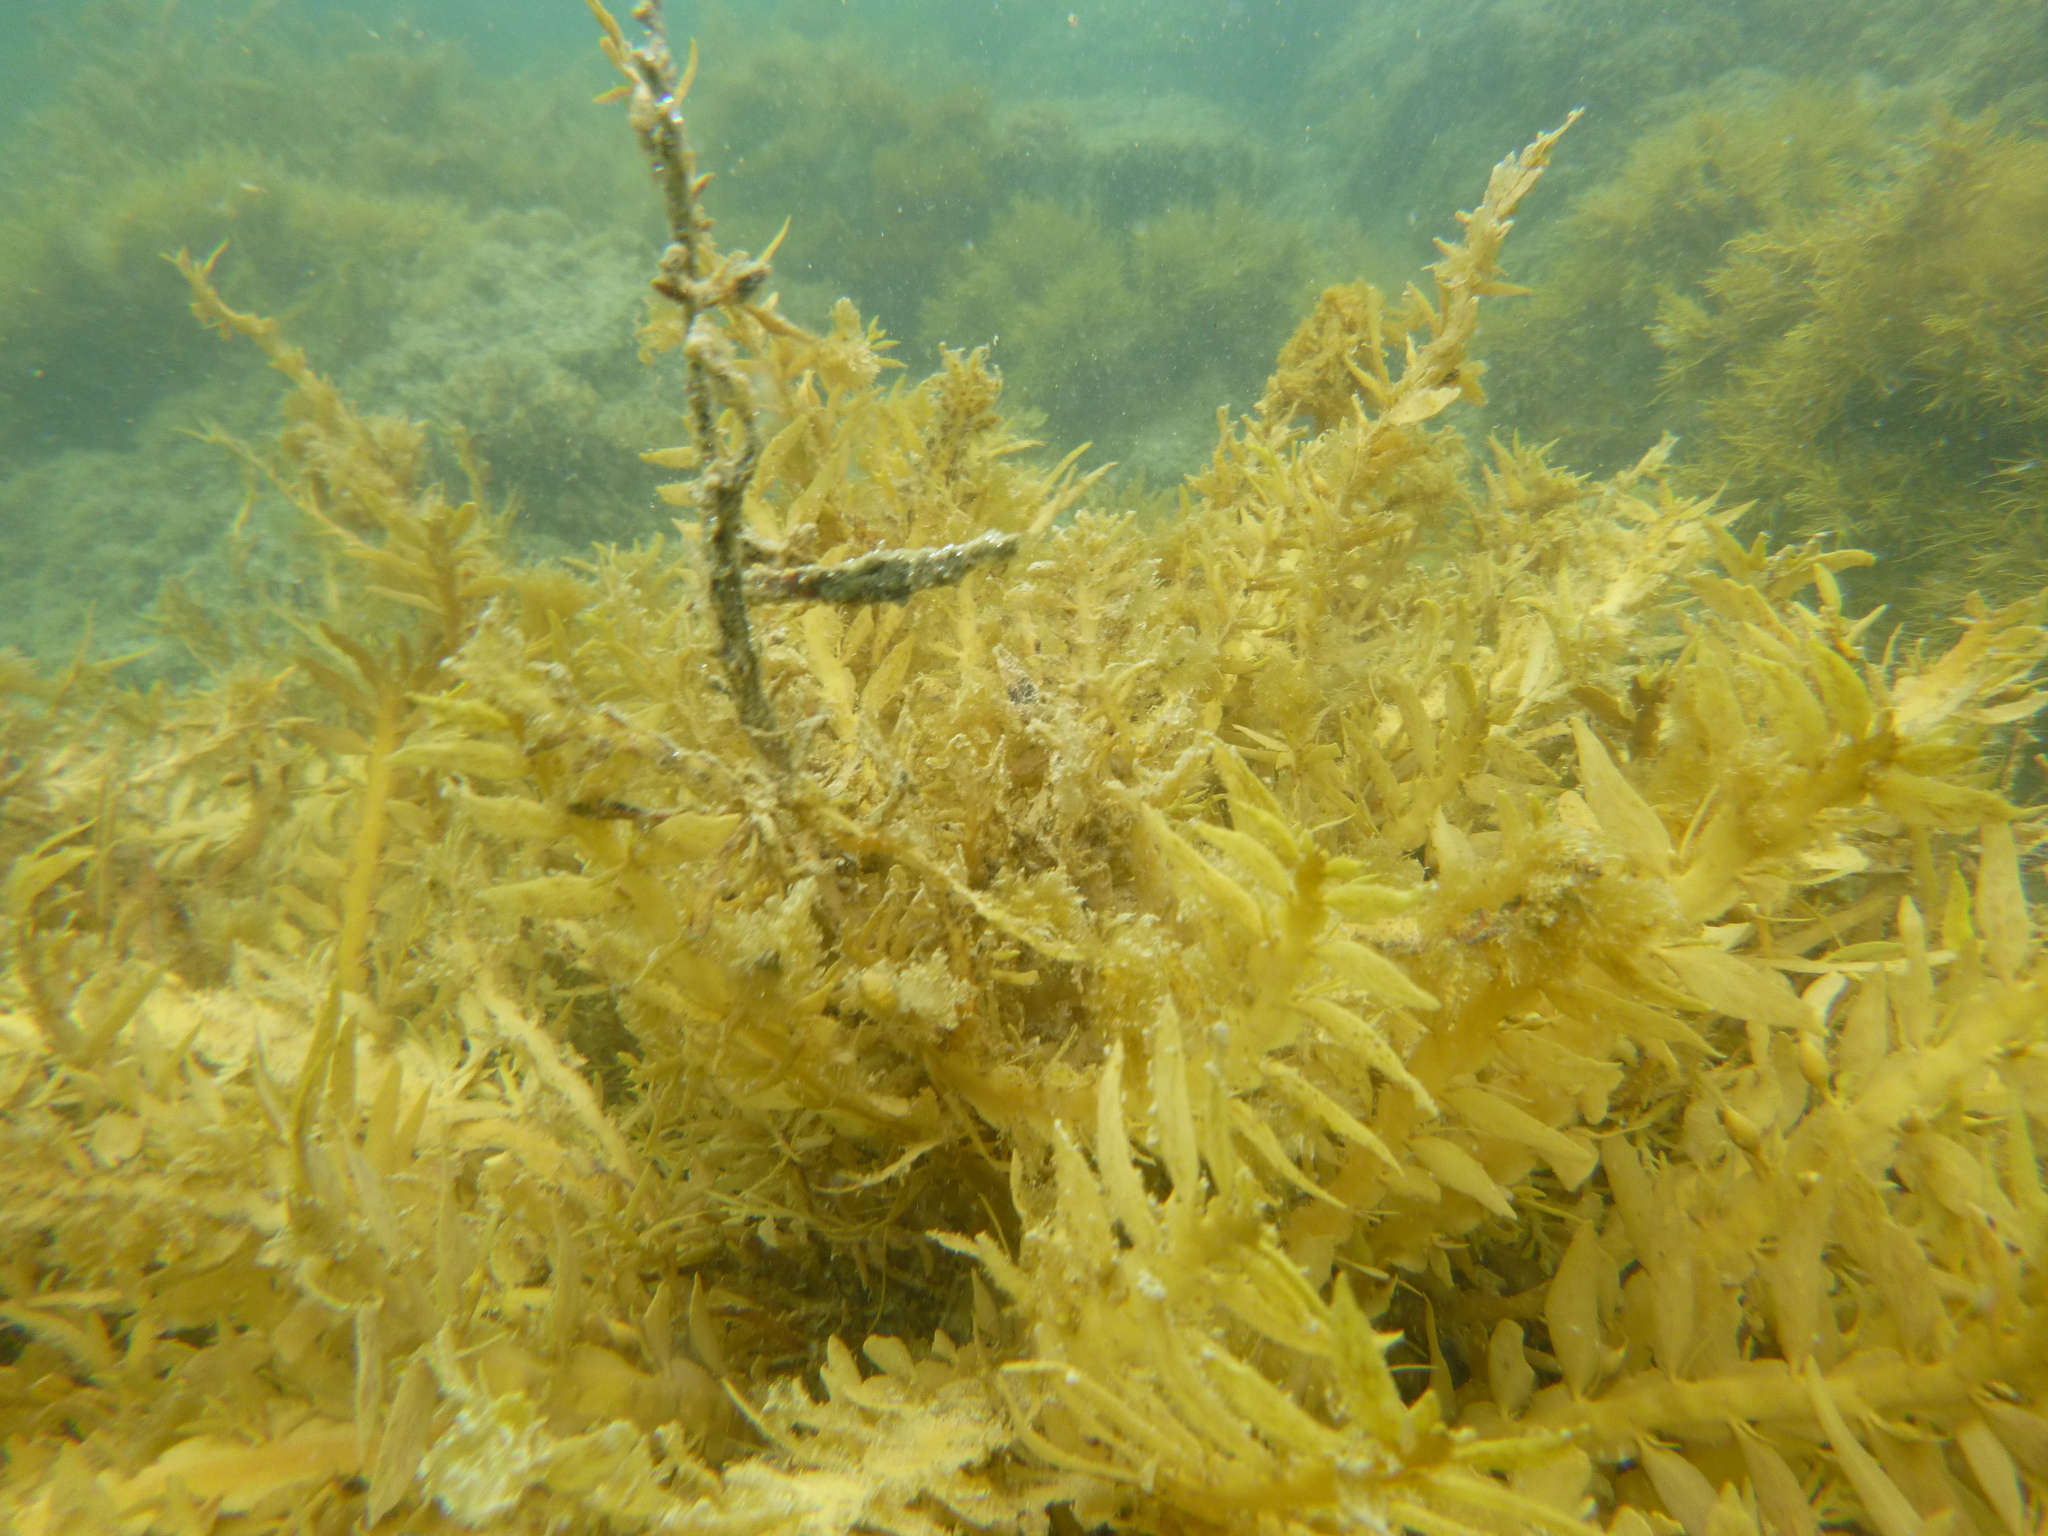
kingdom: Chromista
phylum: Ochrophyta
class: Phaeophyceae
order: Fucales
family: Sargassaceae
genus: Carpophyllum
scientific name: Carpophyllum maschalocarpum
